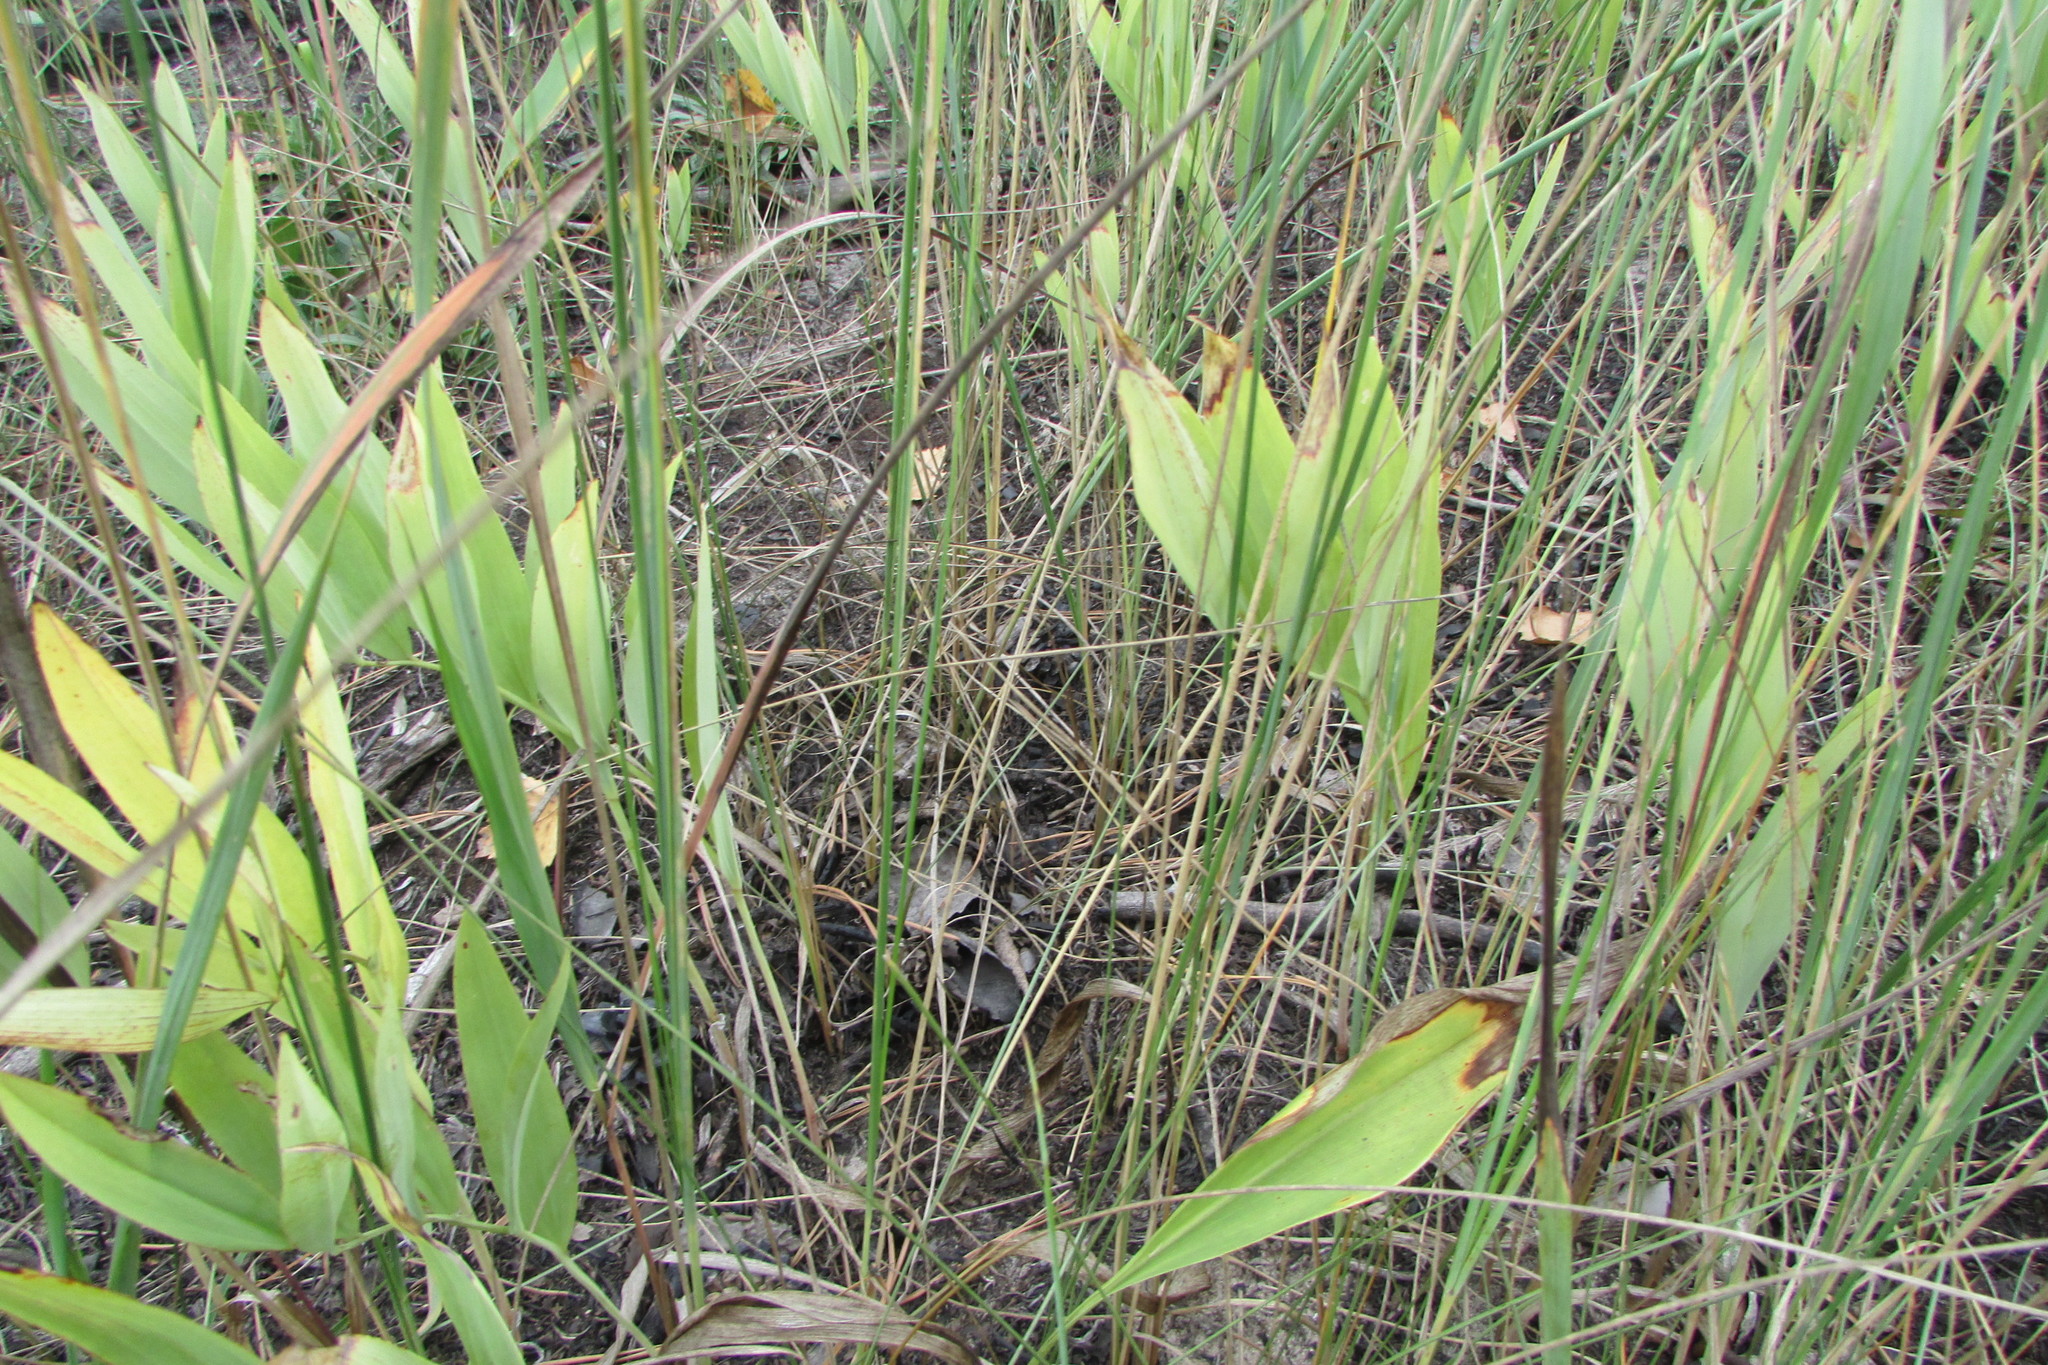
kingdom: Plantae
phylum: Tracheophyta
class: Liliopsida
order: Asparagales
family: Asparagaceae
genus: Polygonatum
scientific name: Polygonatum odoratum
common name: Angular solomon's-seal
